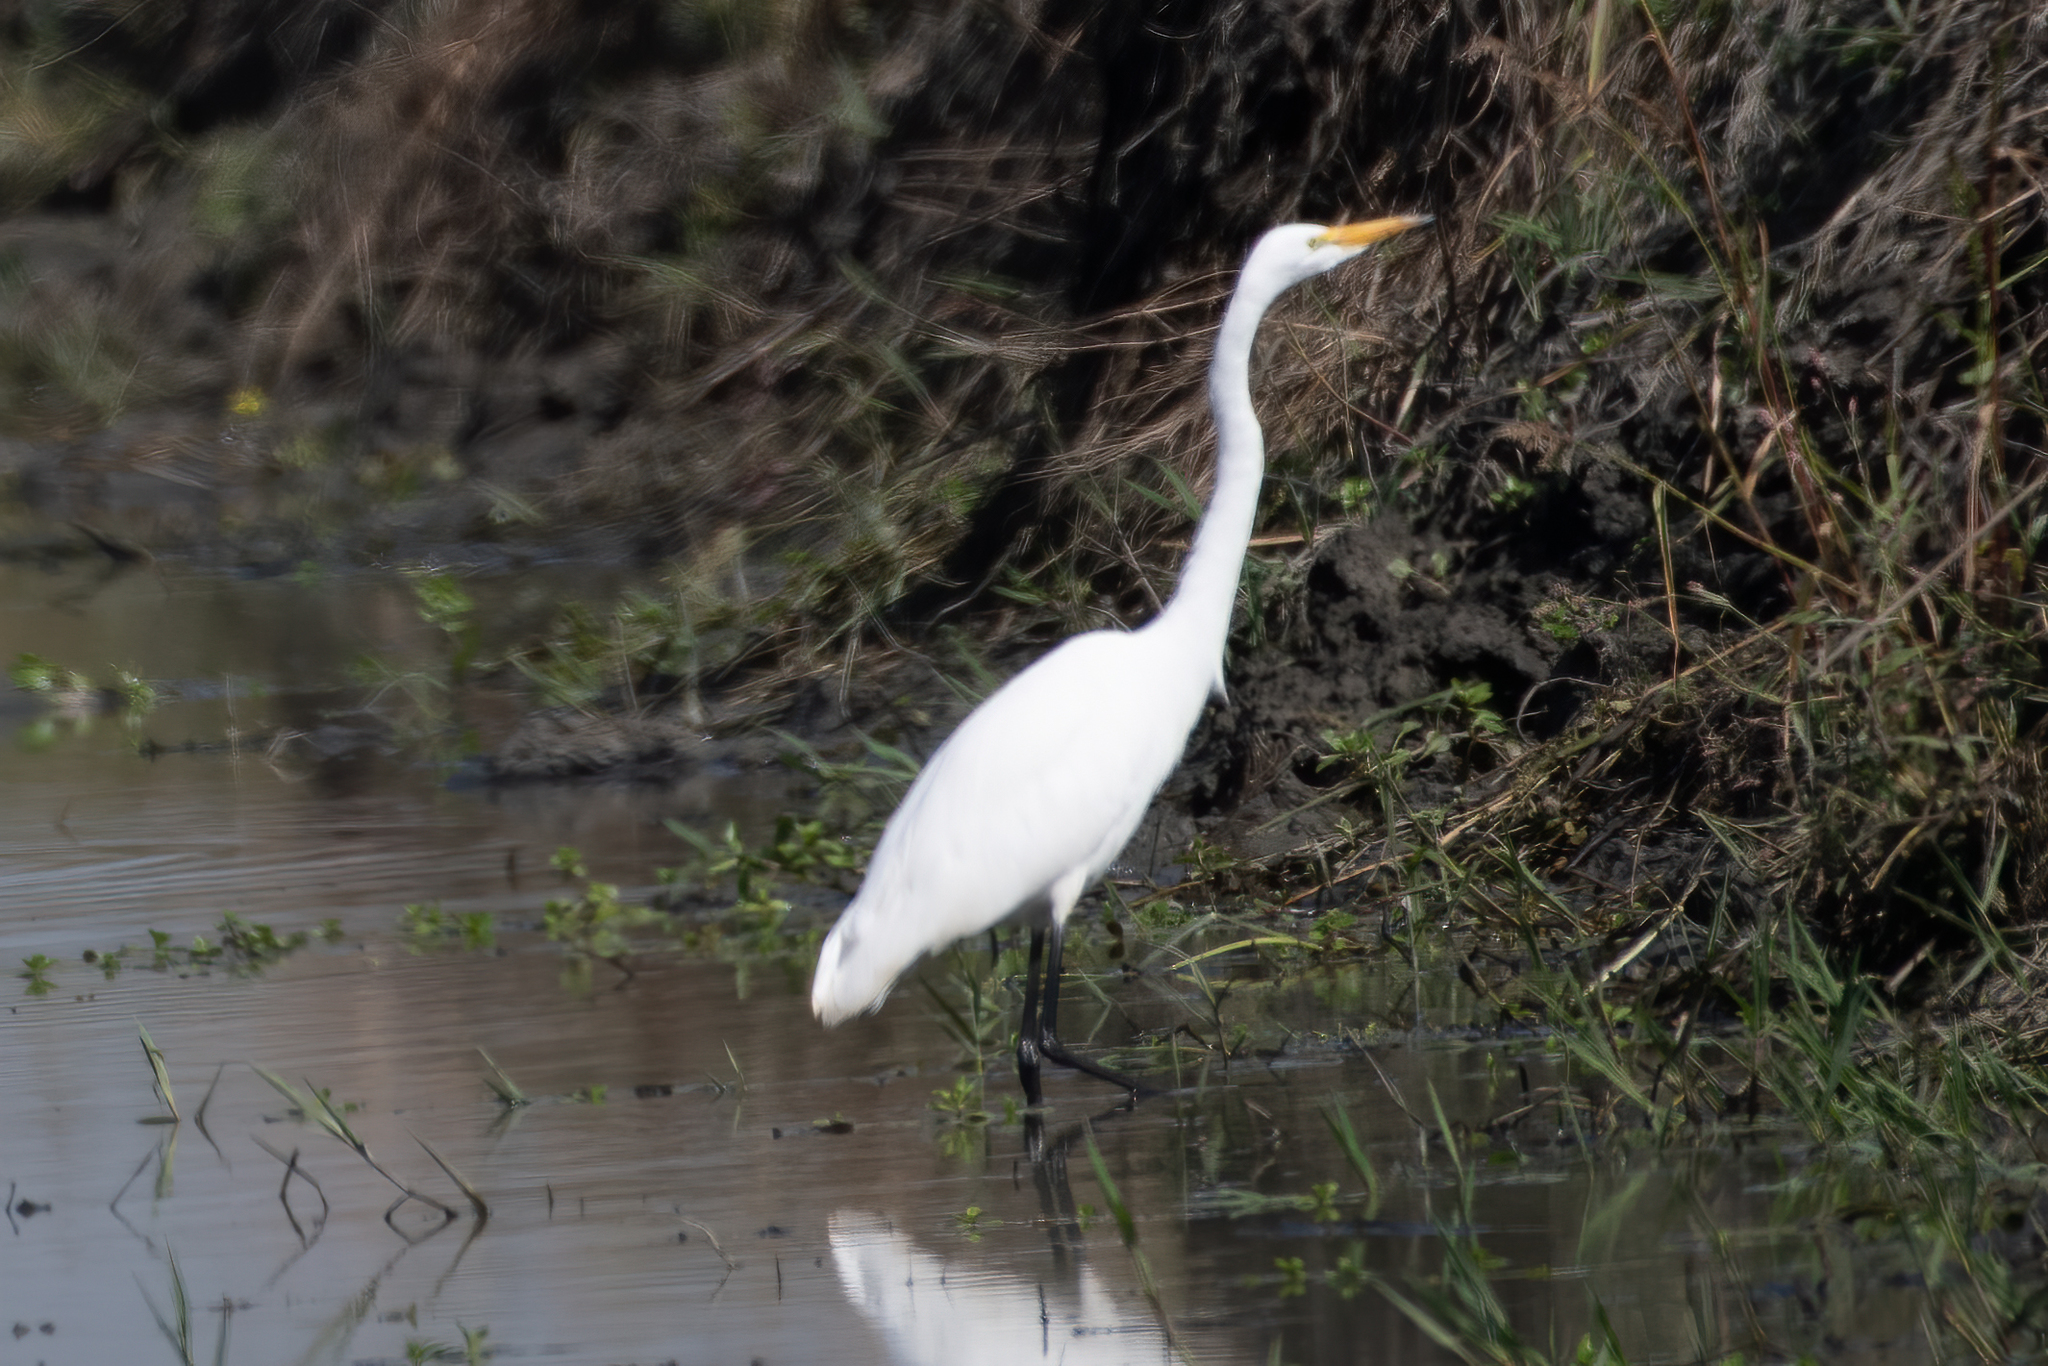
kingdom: Animalia
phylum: Chordata
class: Aves
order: Pelecaniformes
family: Ardeidae
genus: Ardea
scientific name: Ardea alba
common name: Great egret
